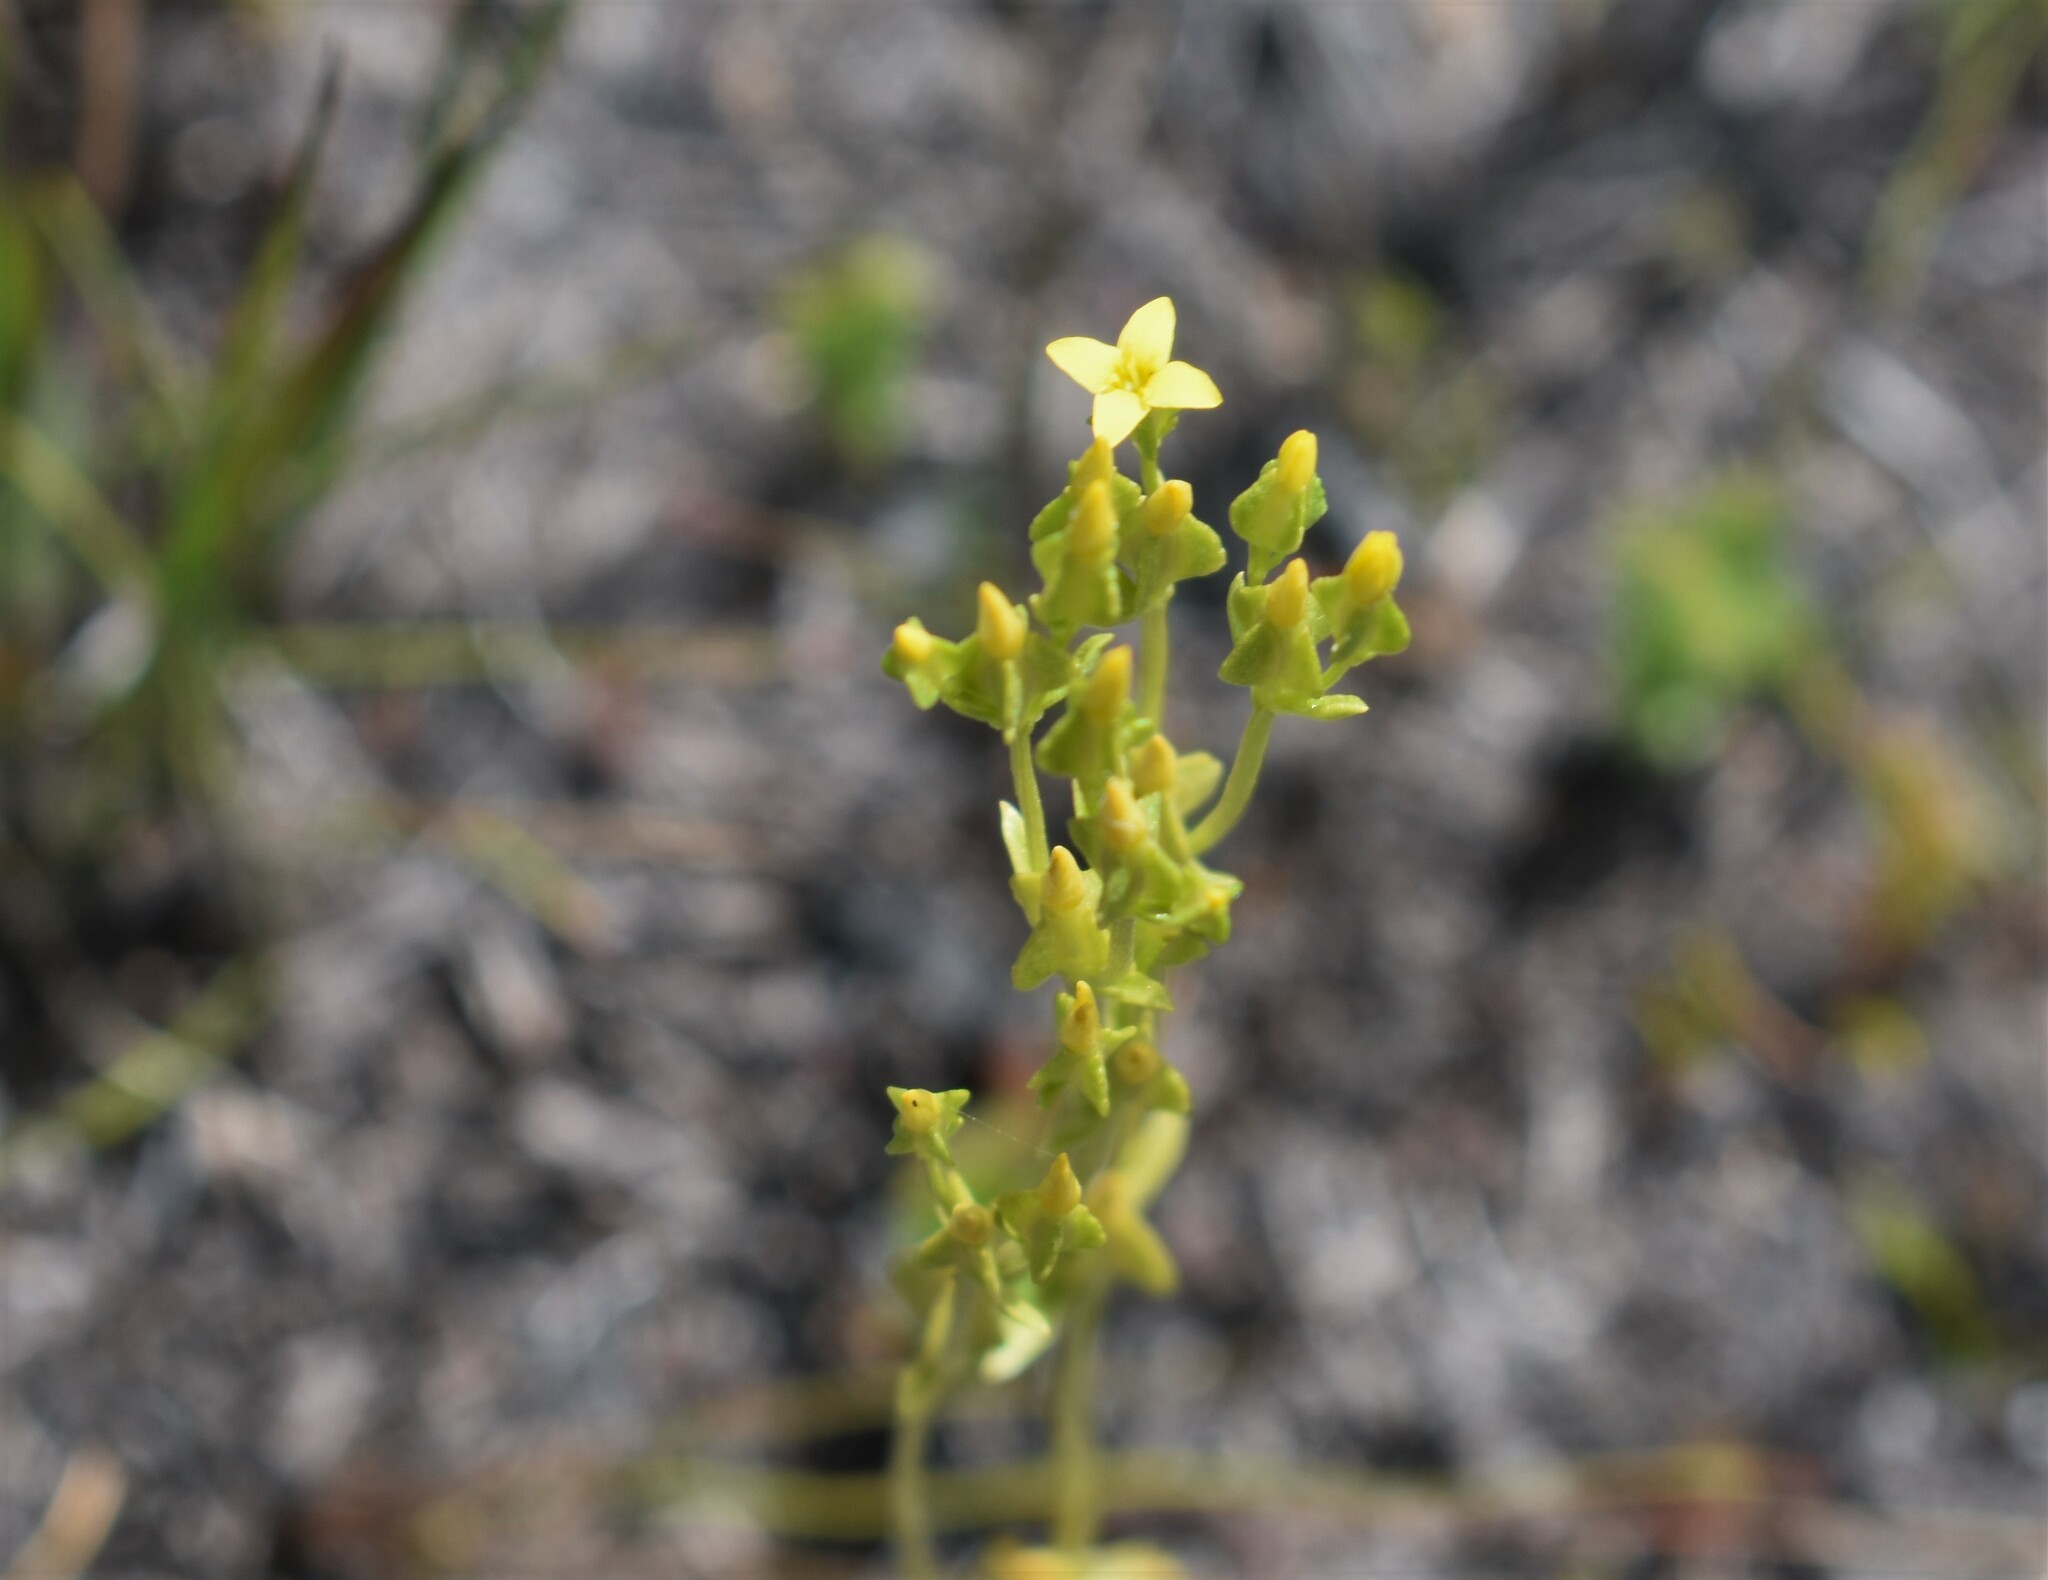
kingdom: Plantae
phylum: Tracheophyta
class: Magnoliopsida
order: Gentianales
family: Gentianaceae
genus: Sebaea
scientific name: Sebaea aurea
